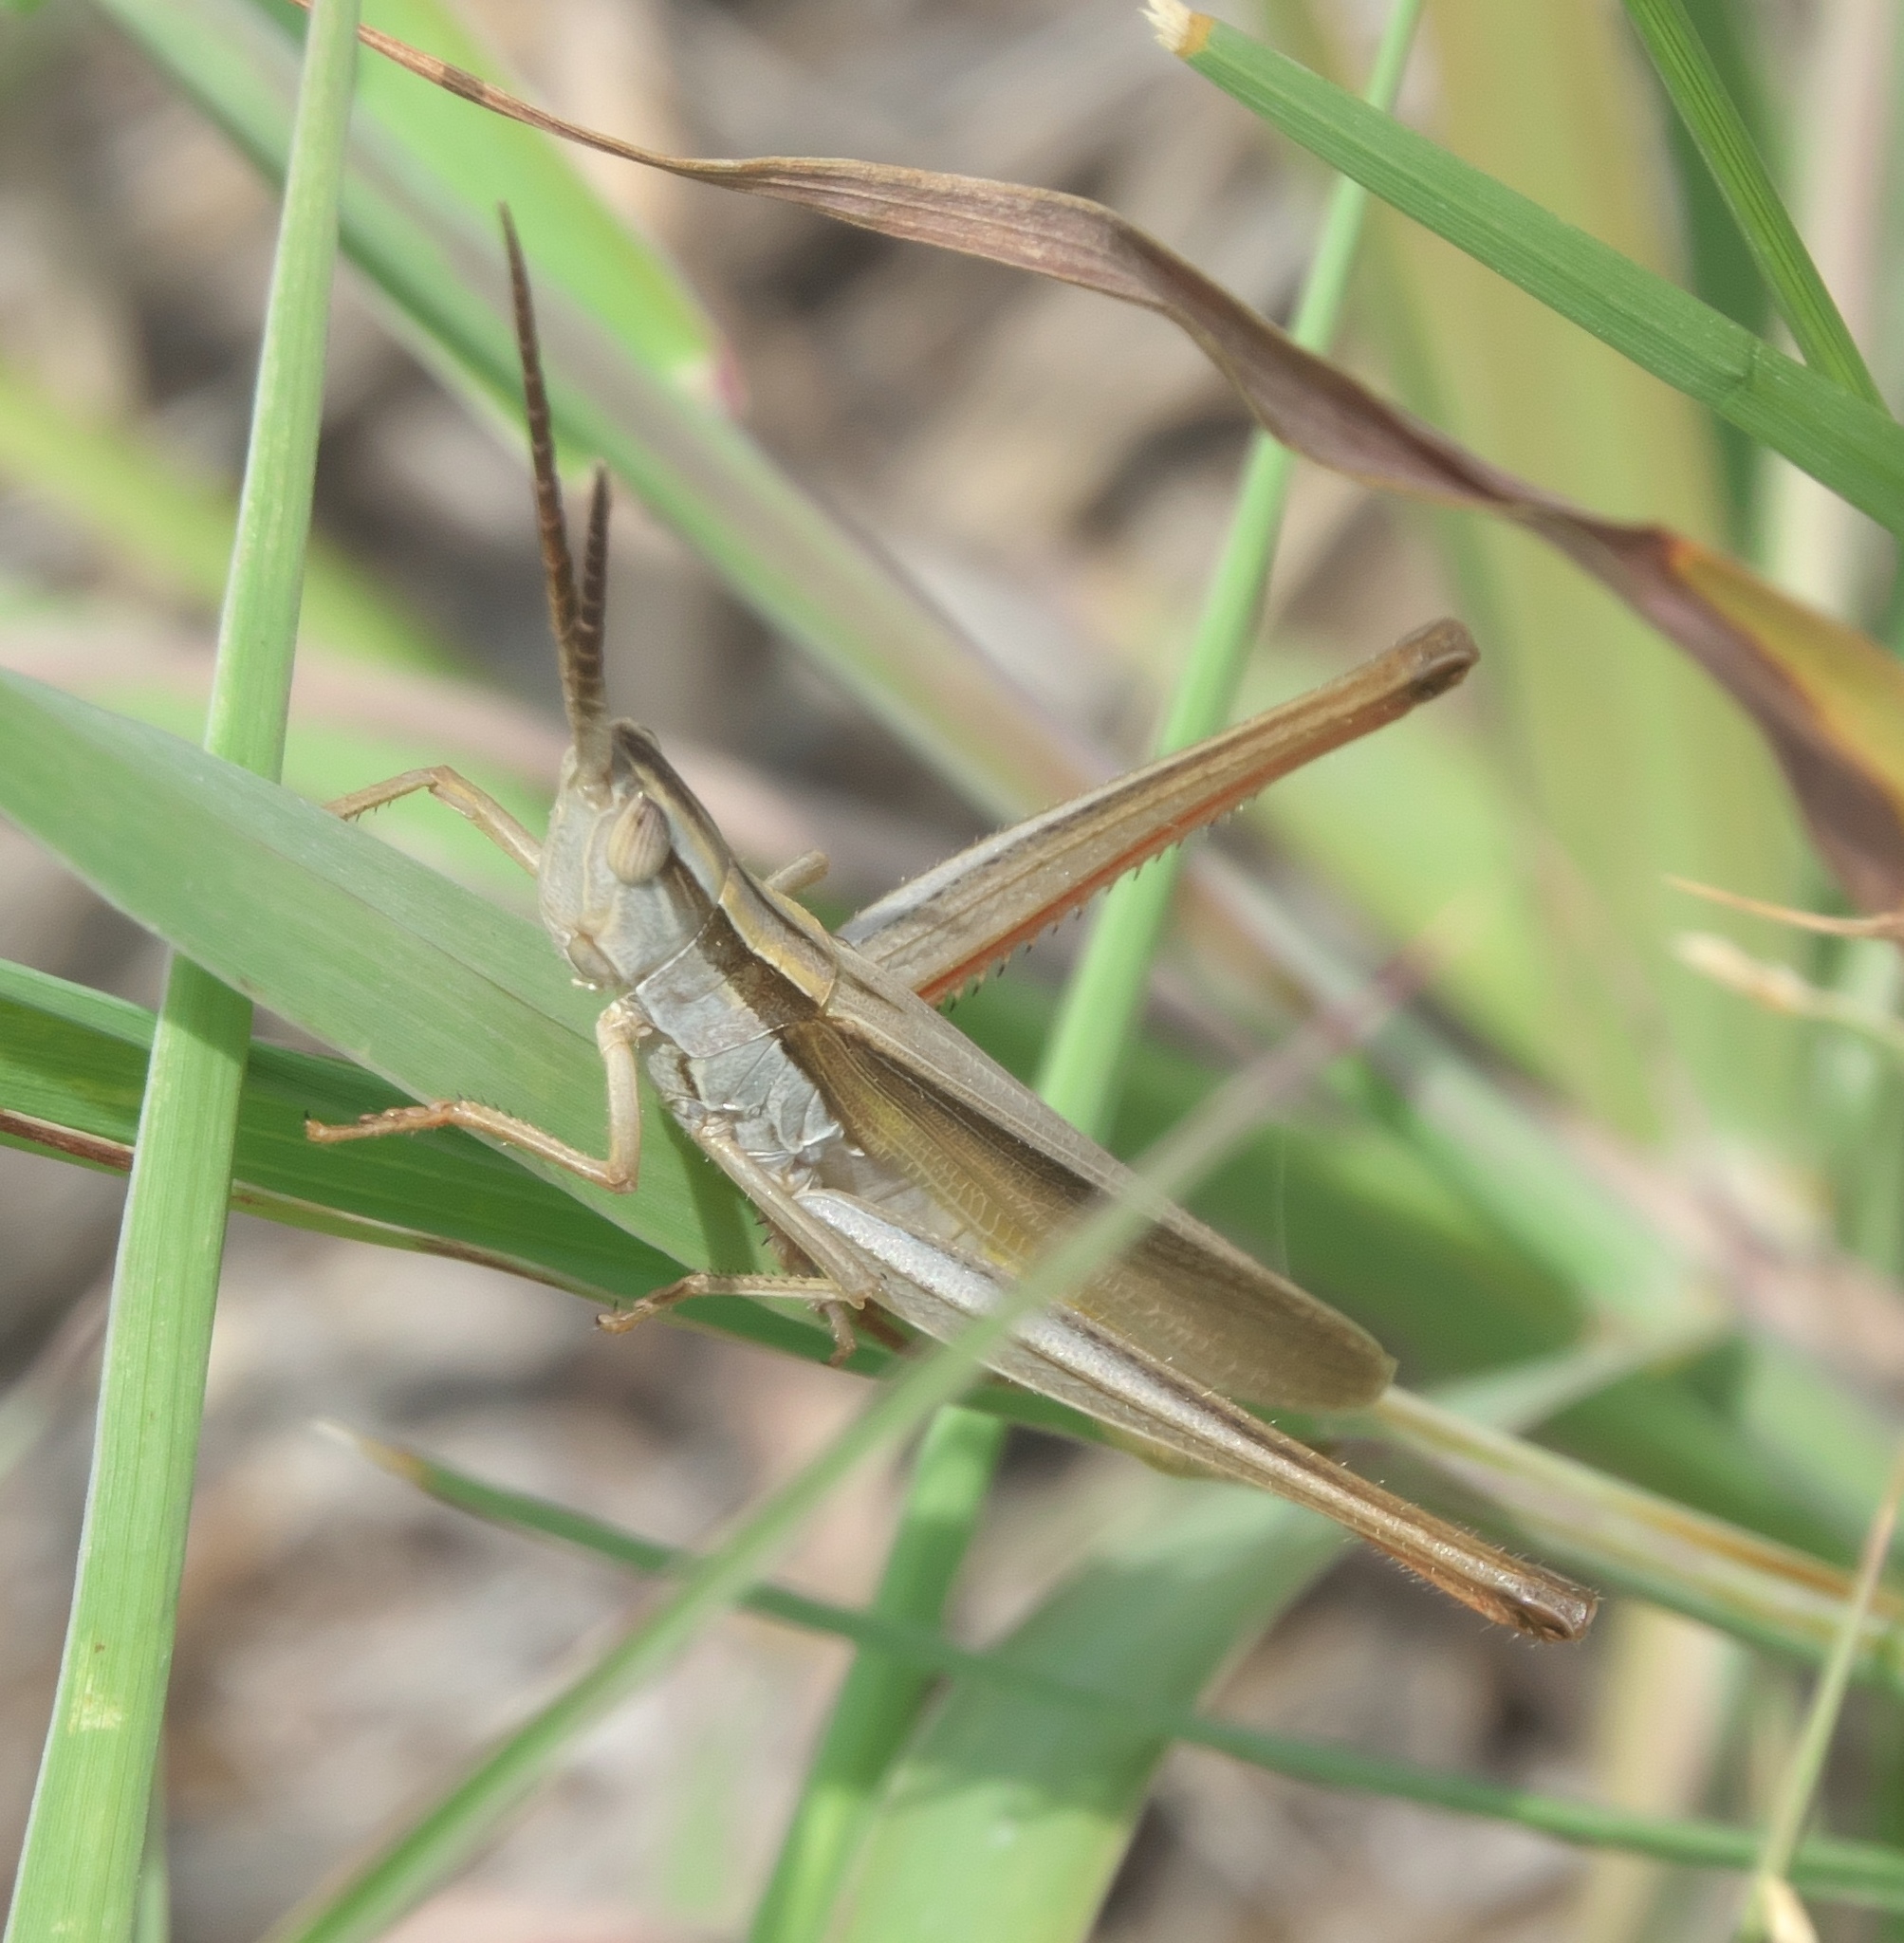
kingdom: Animalia
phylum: Arthropoda
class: Insecta
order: Orthoptera
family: Acrididae
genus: Mermiria
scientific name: Mermiria picta
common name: Lively mermiria grasshopper
